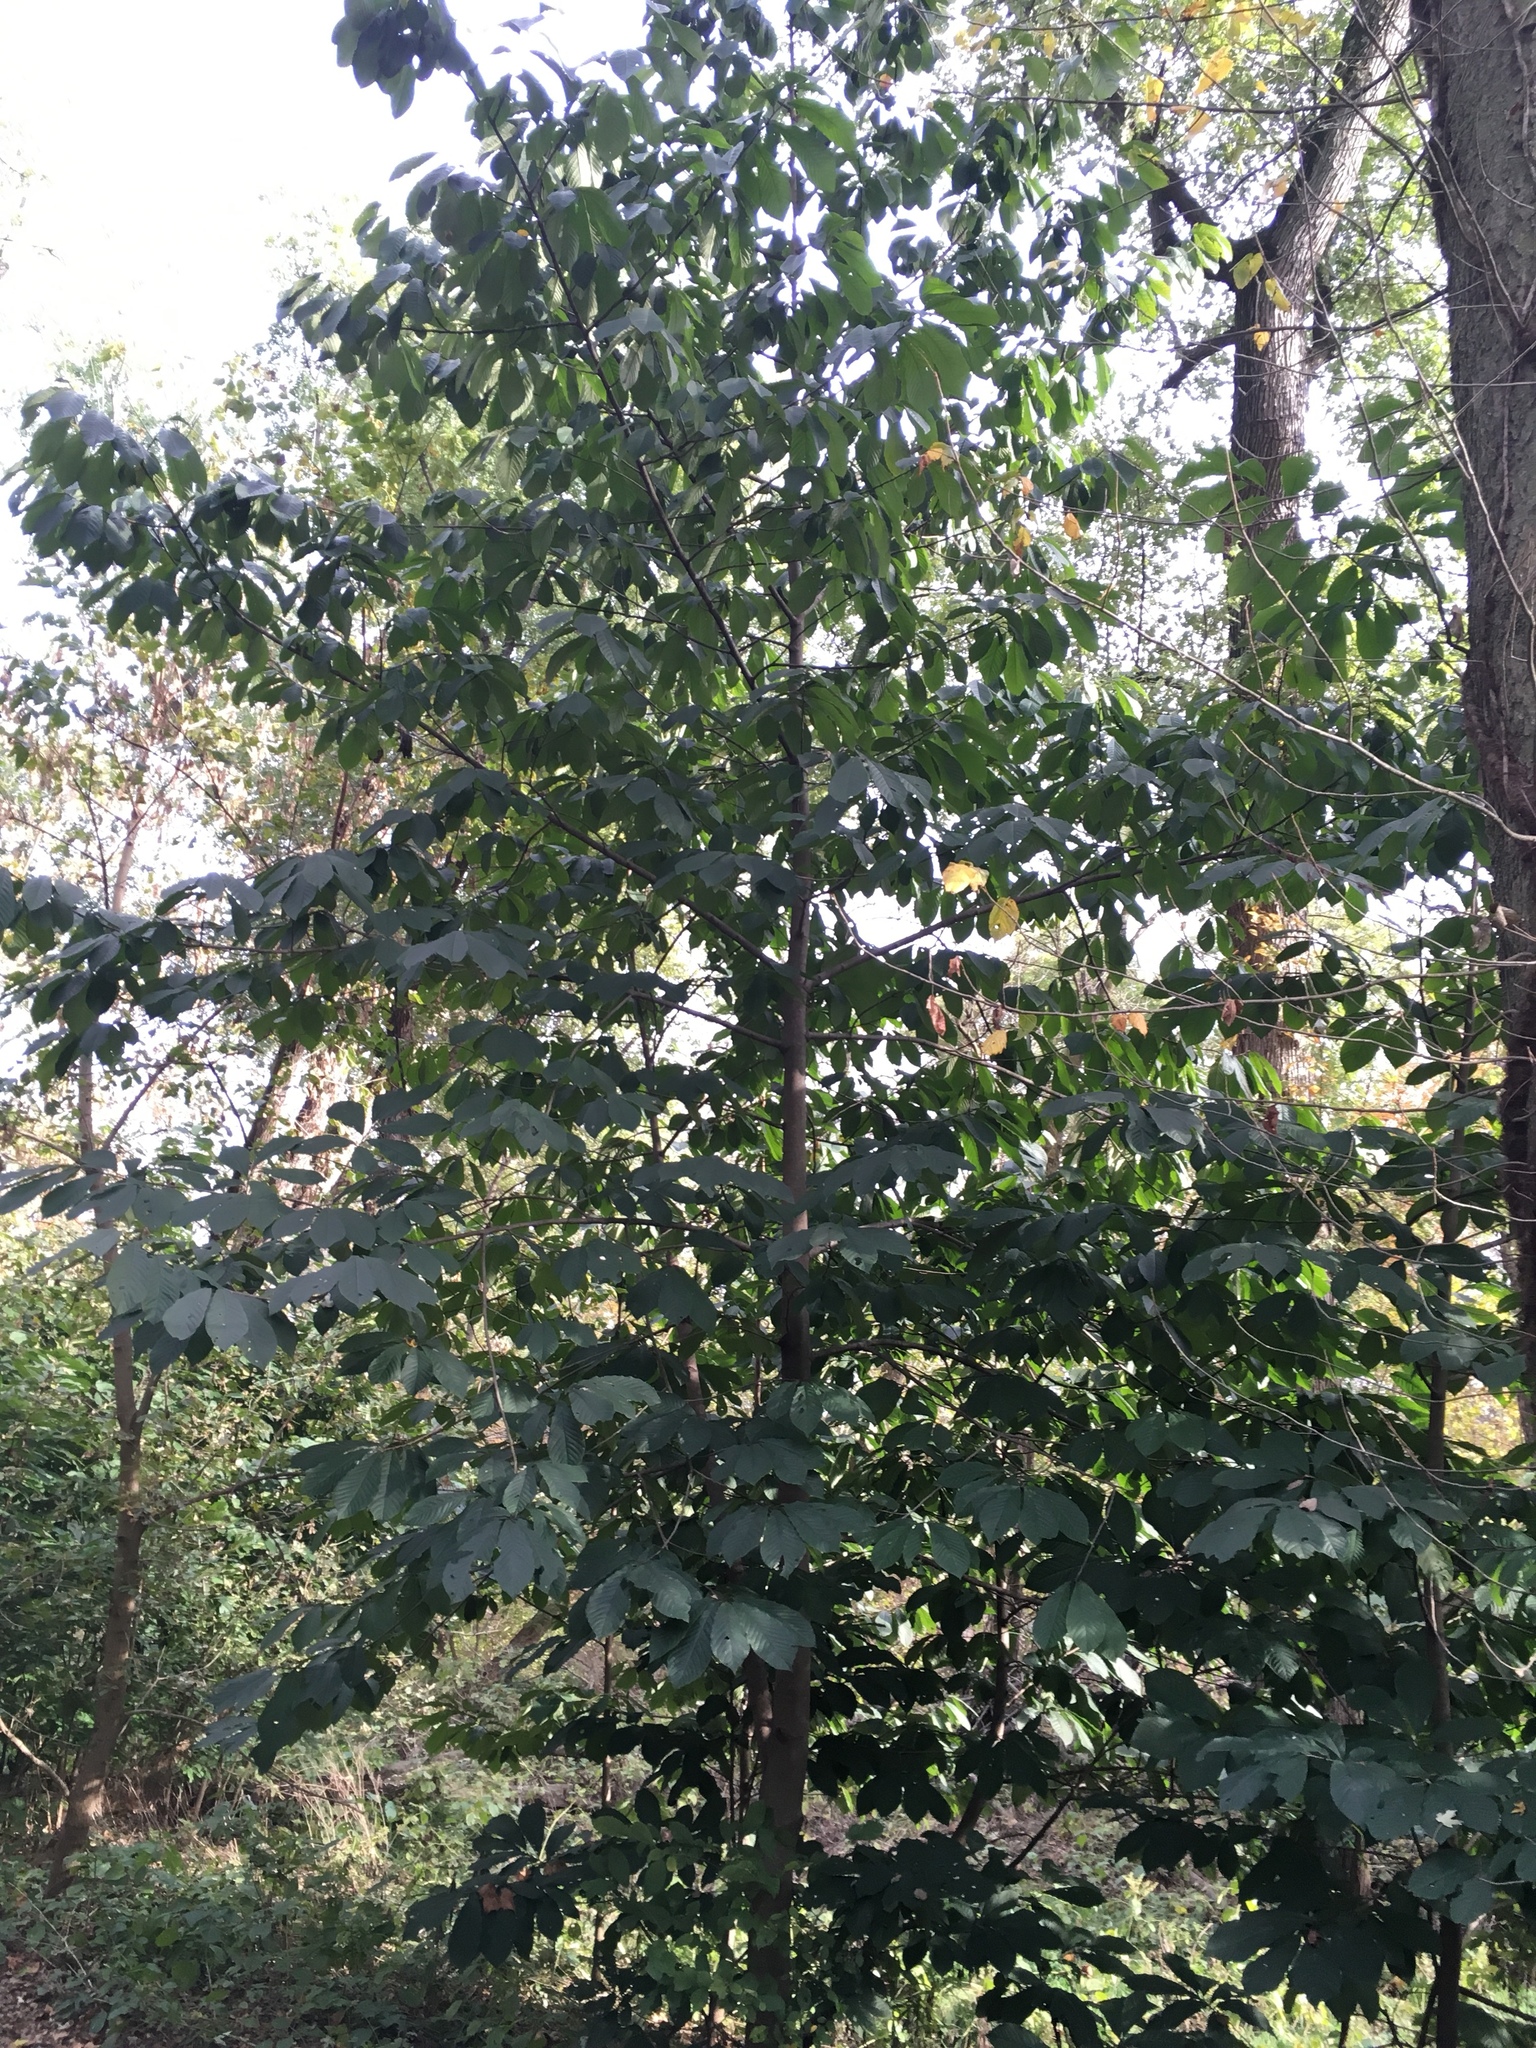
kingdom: Plantae
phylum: Tracheophyta
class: Magnoliopsida
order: Magnoliales
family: Annonaceae
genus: Asimina
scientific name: Asimina triloba
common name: Dog-banana
